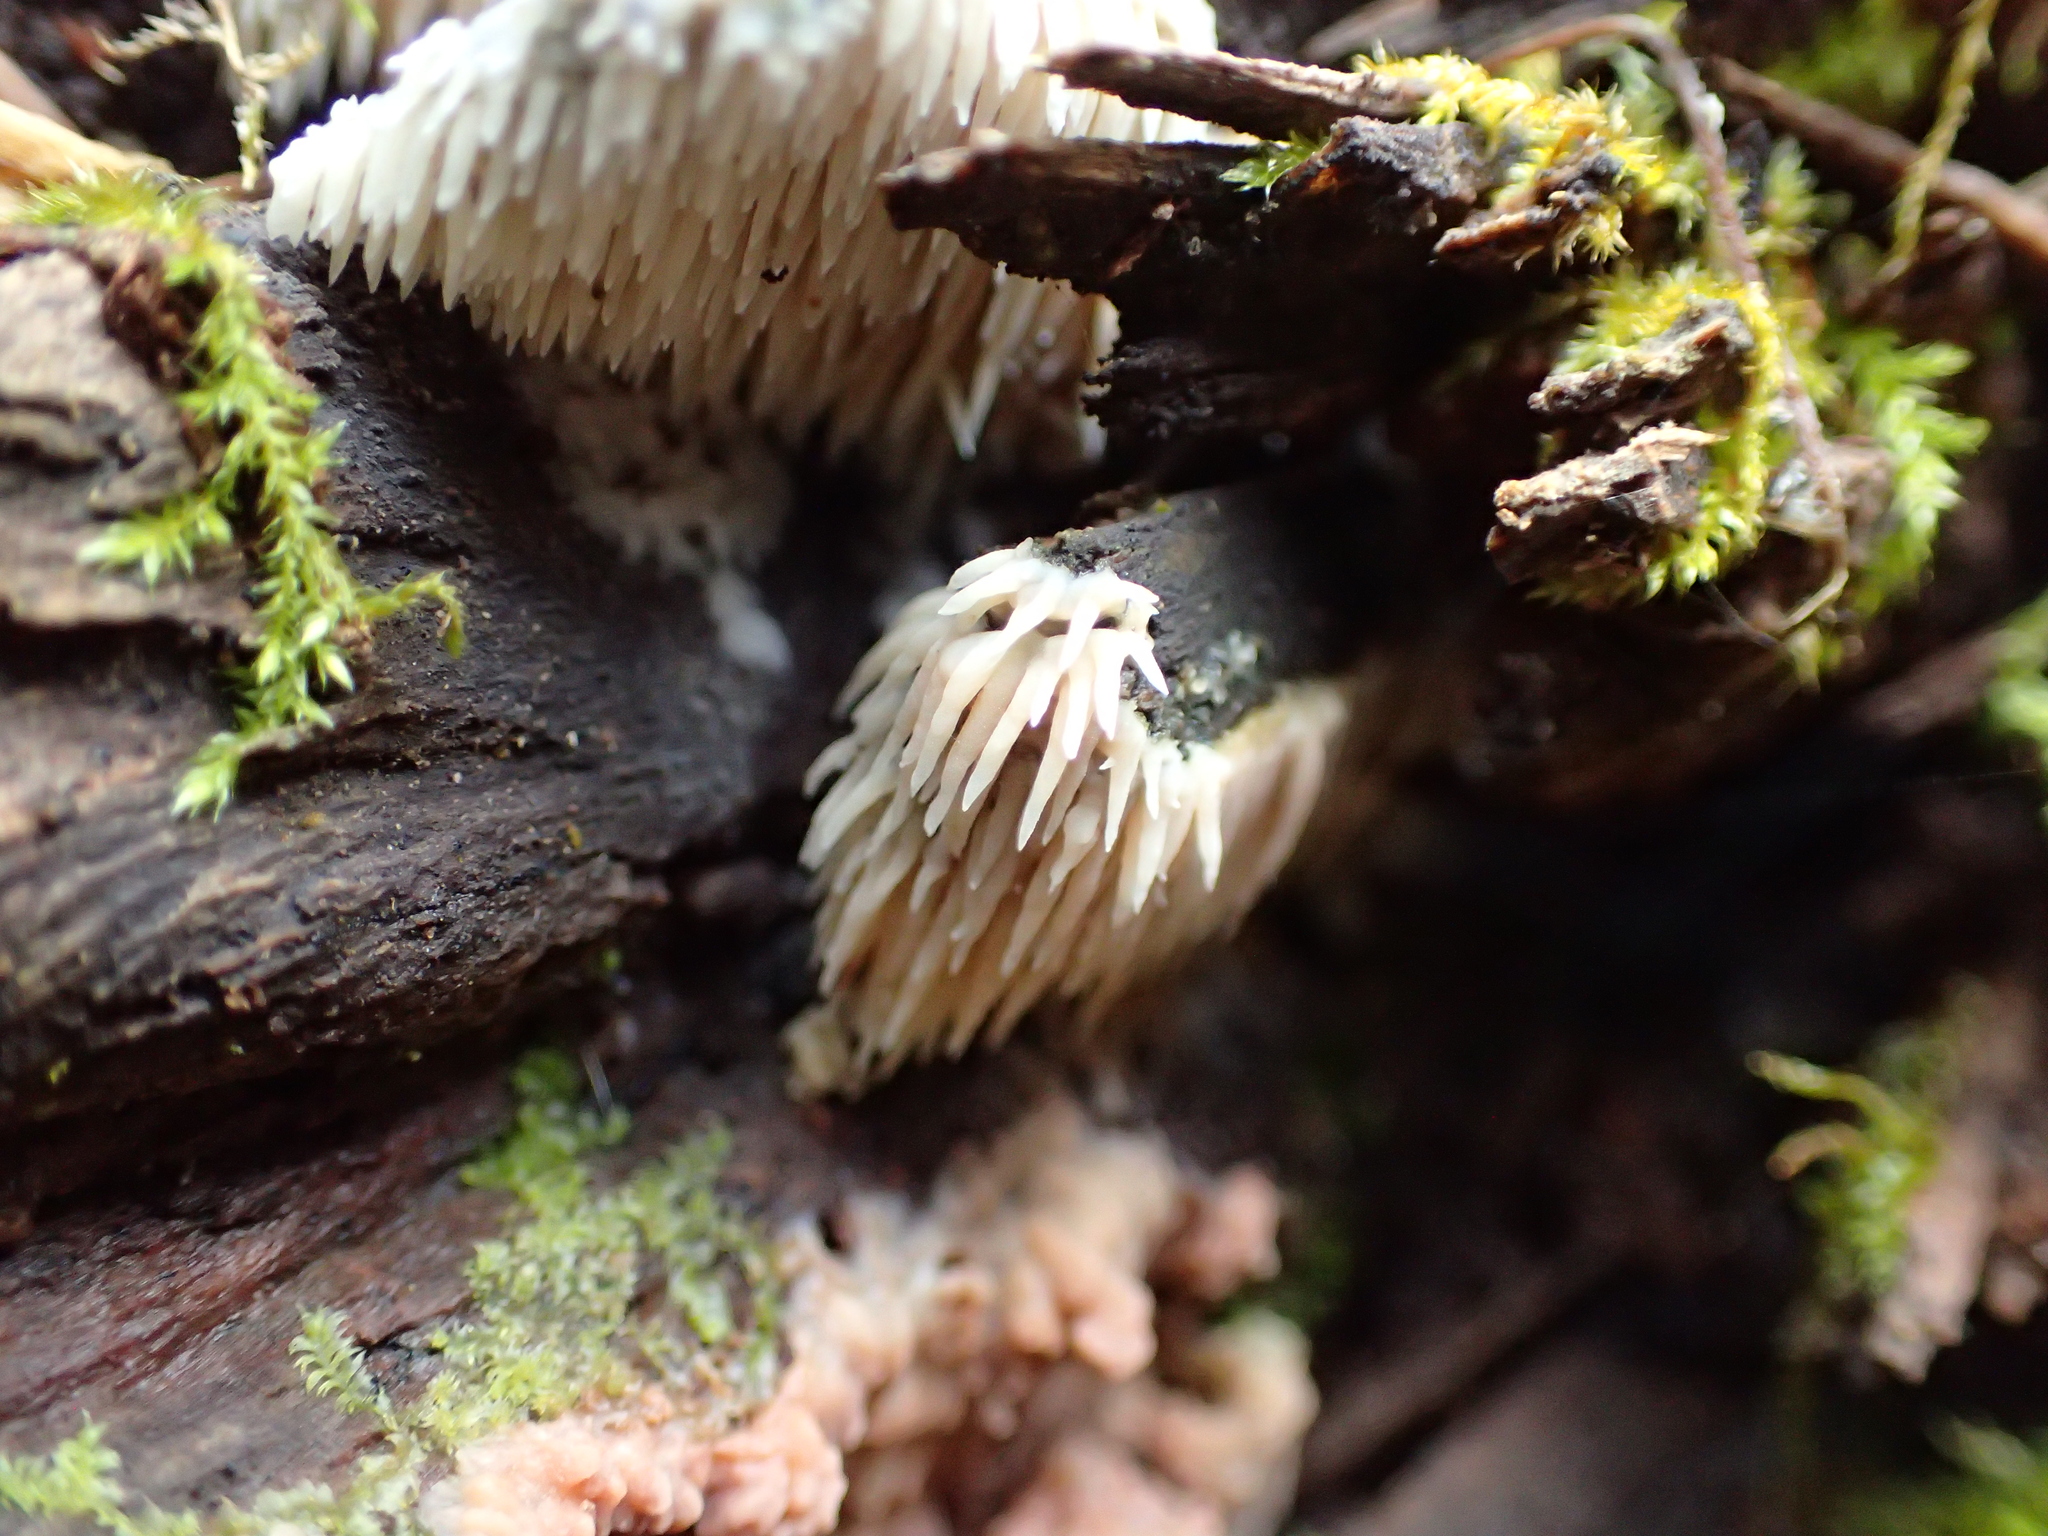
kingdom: Fungi
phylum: Basidiomycota
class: Agaricomycetes
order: Agaricales
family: Radulomycetaceae
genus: Radulomyces
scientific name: Radulomyces copelandii
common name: Asian beauty
